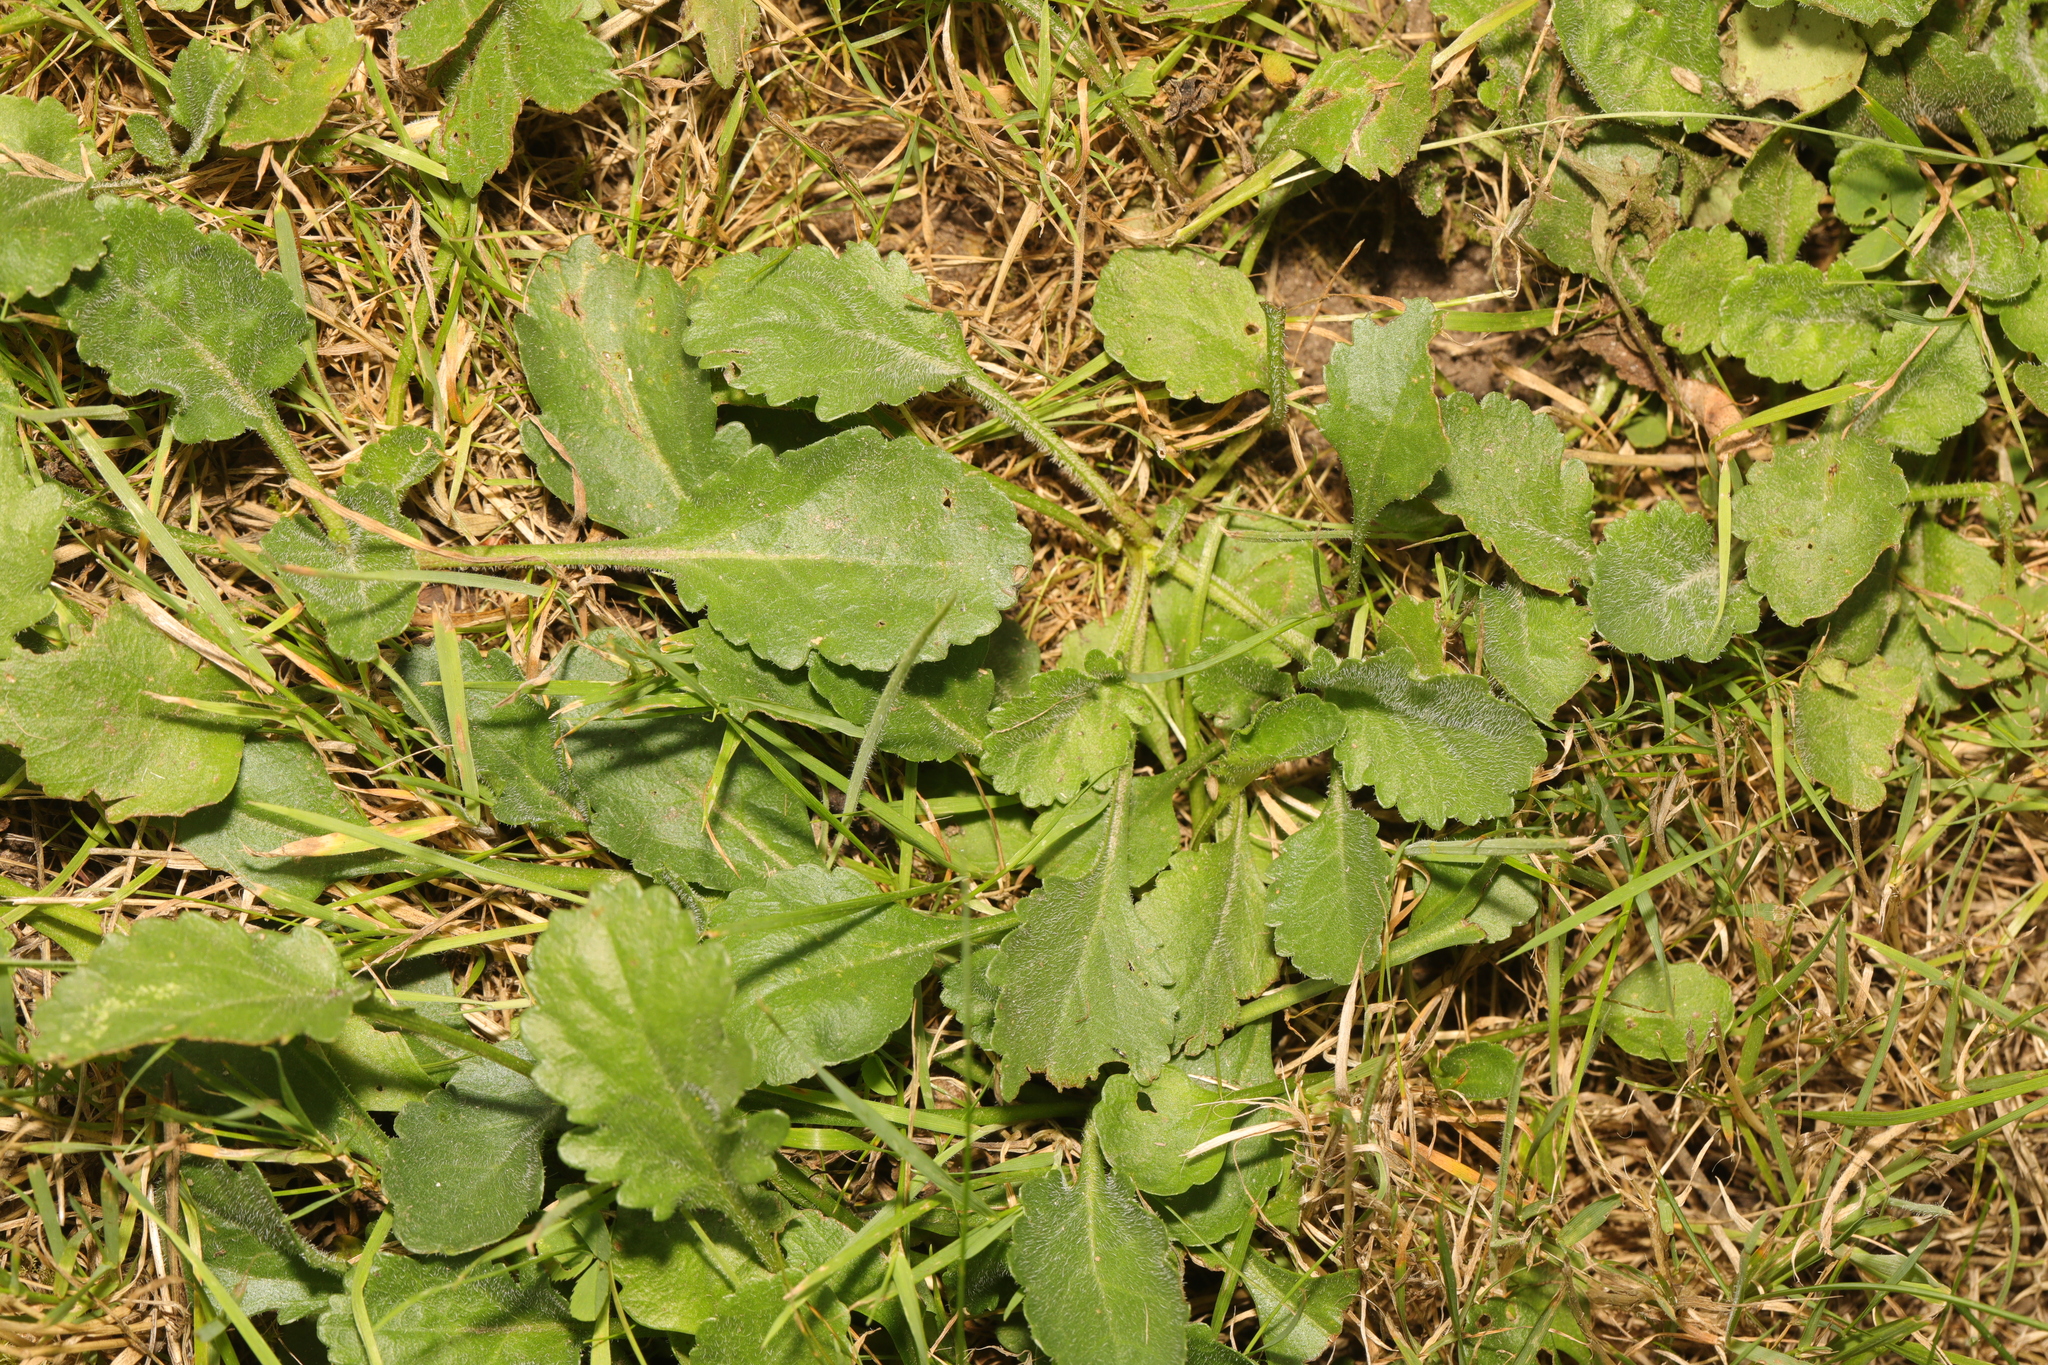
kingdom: Plantae
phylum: Tracheophyta
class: Magnoliopsida
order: Asterales
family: Asteraceae
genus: Leucanthemum
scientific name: Leucanthemum vulgare
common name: Oxeye daisy
